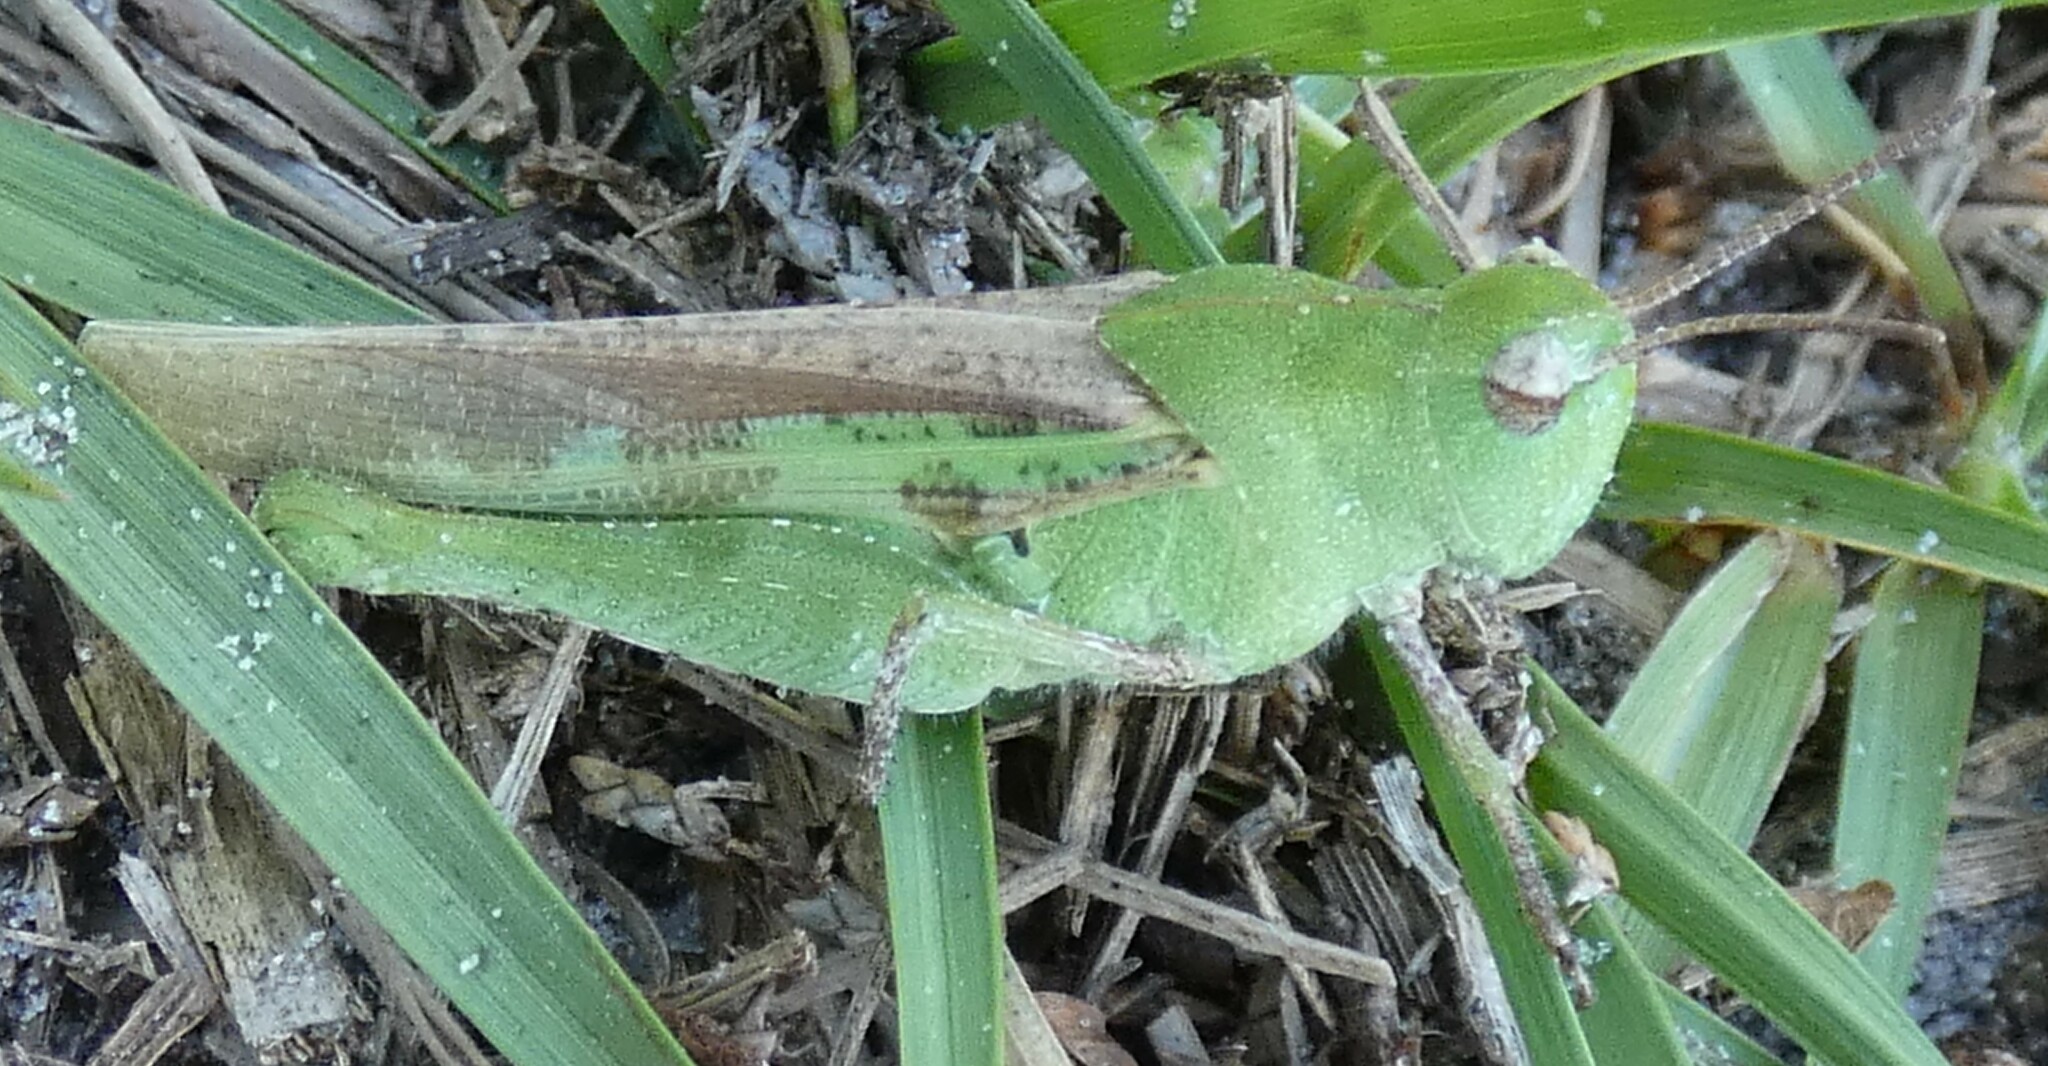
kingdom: Animalia
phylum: Arthropoda
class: Insecta
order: Orthoptera
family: Acrididae
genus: Chortophaga
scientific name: Chortophaga australior
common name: Southern green-striped grasshopper
